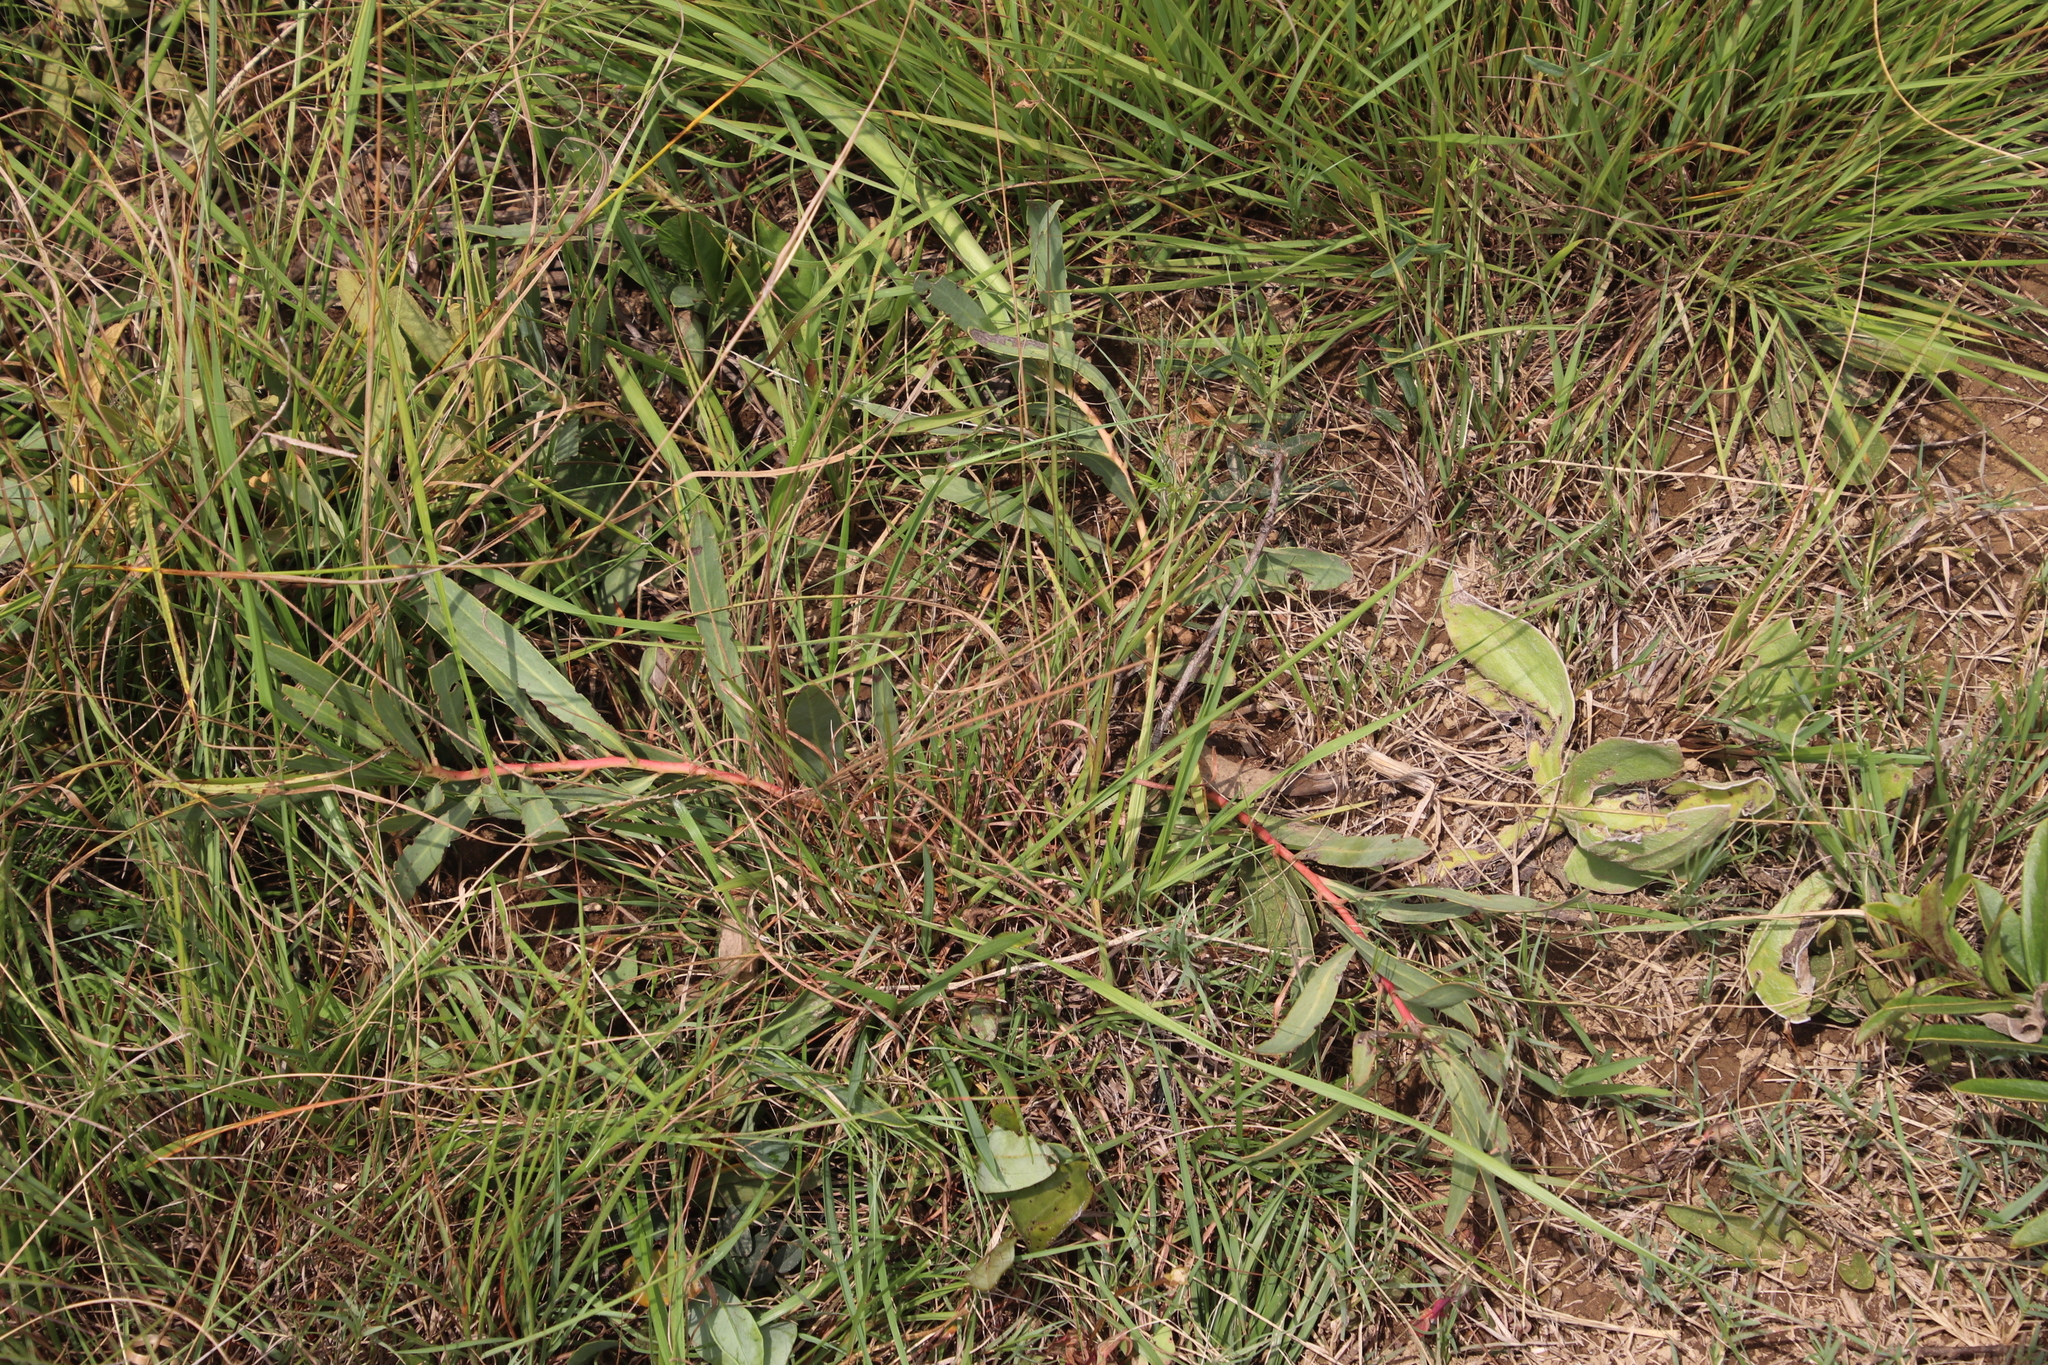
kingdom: Plantae
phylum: Tracheophyta
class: Magnoliopsida
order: Proteales
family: Proteaceae
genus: Protea
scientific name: Protea simplex
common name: Dwarf grassveld sugarbush
